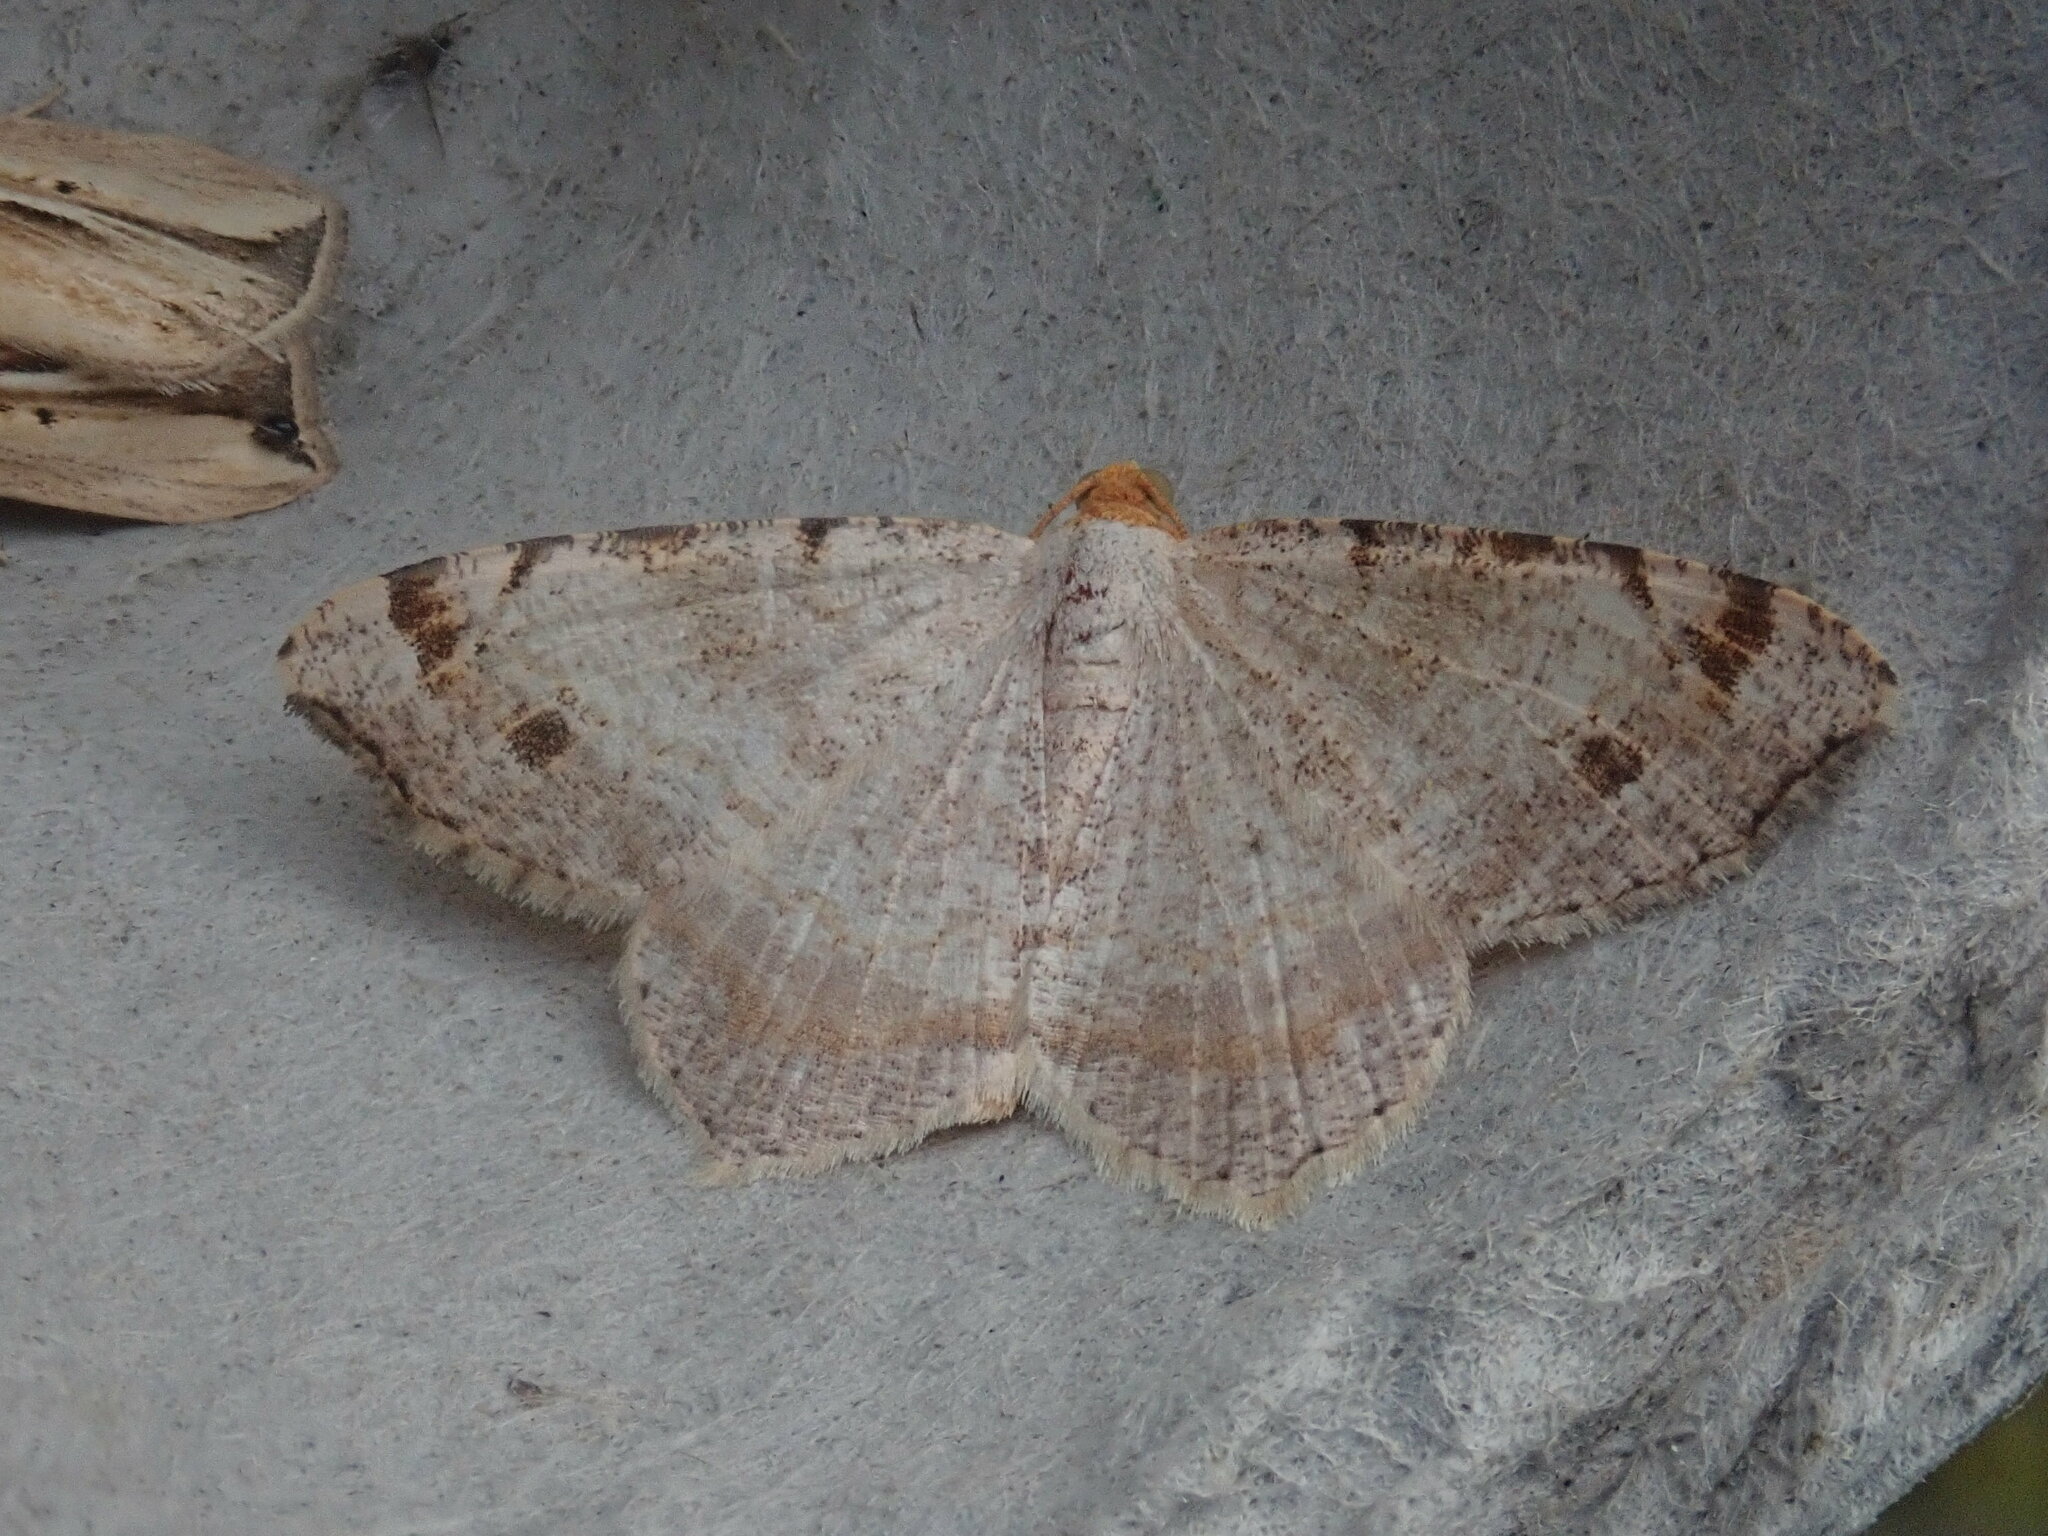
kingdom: Animalia
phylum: Arthropoda
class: Insecta
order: Lepidoptera
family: Geometridae
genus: Macaria
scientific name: Macaria bisignata
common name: Red-headed inchworm
